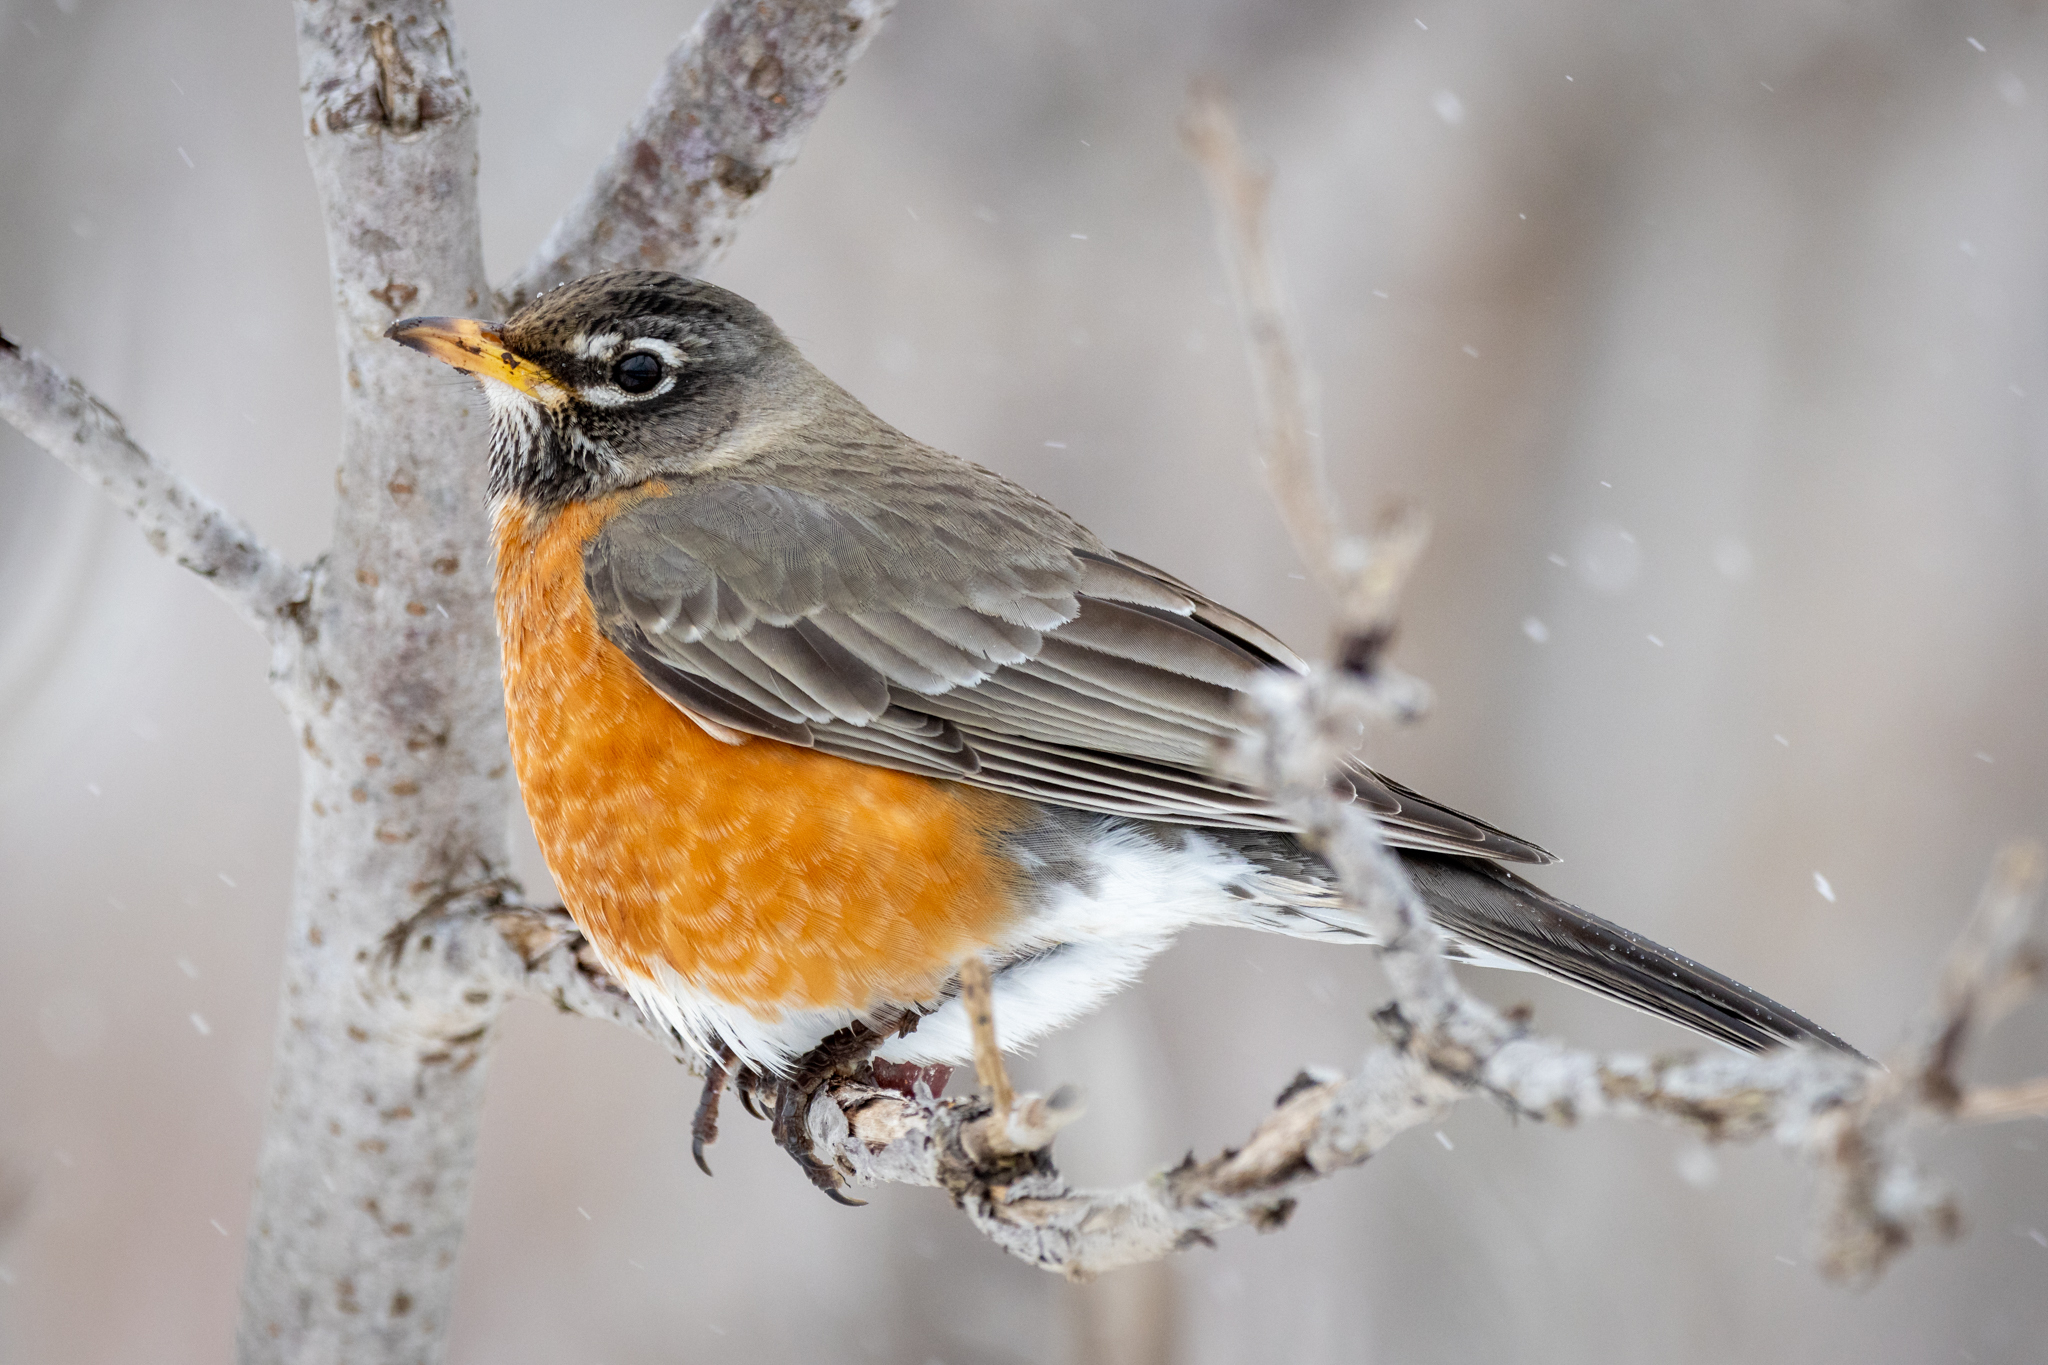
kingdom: Animalia
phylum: Chordata
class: Aves
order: Passeriformes
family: Turdidae
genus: Turdus
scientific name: Turdus migratorius
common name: American robin
